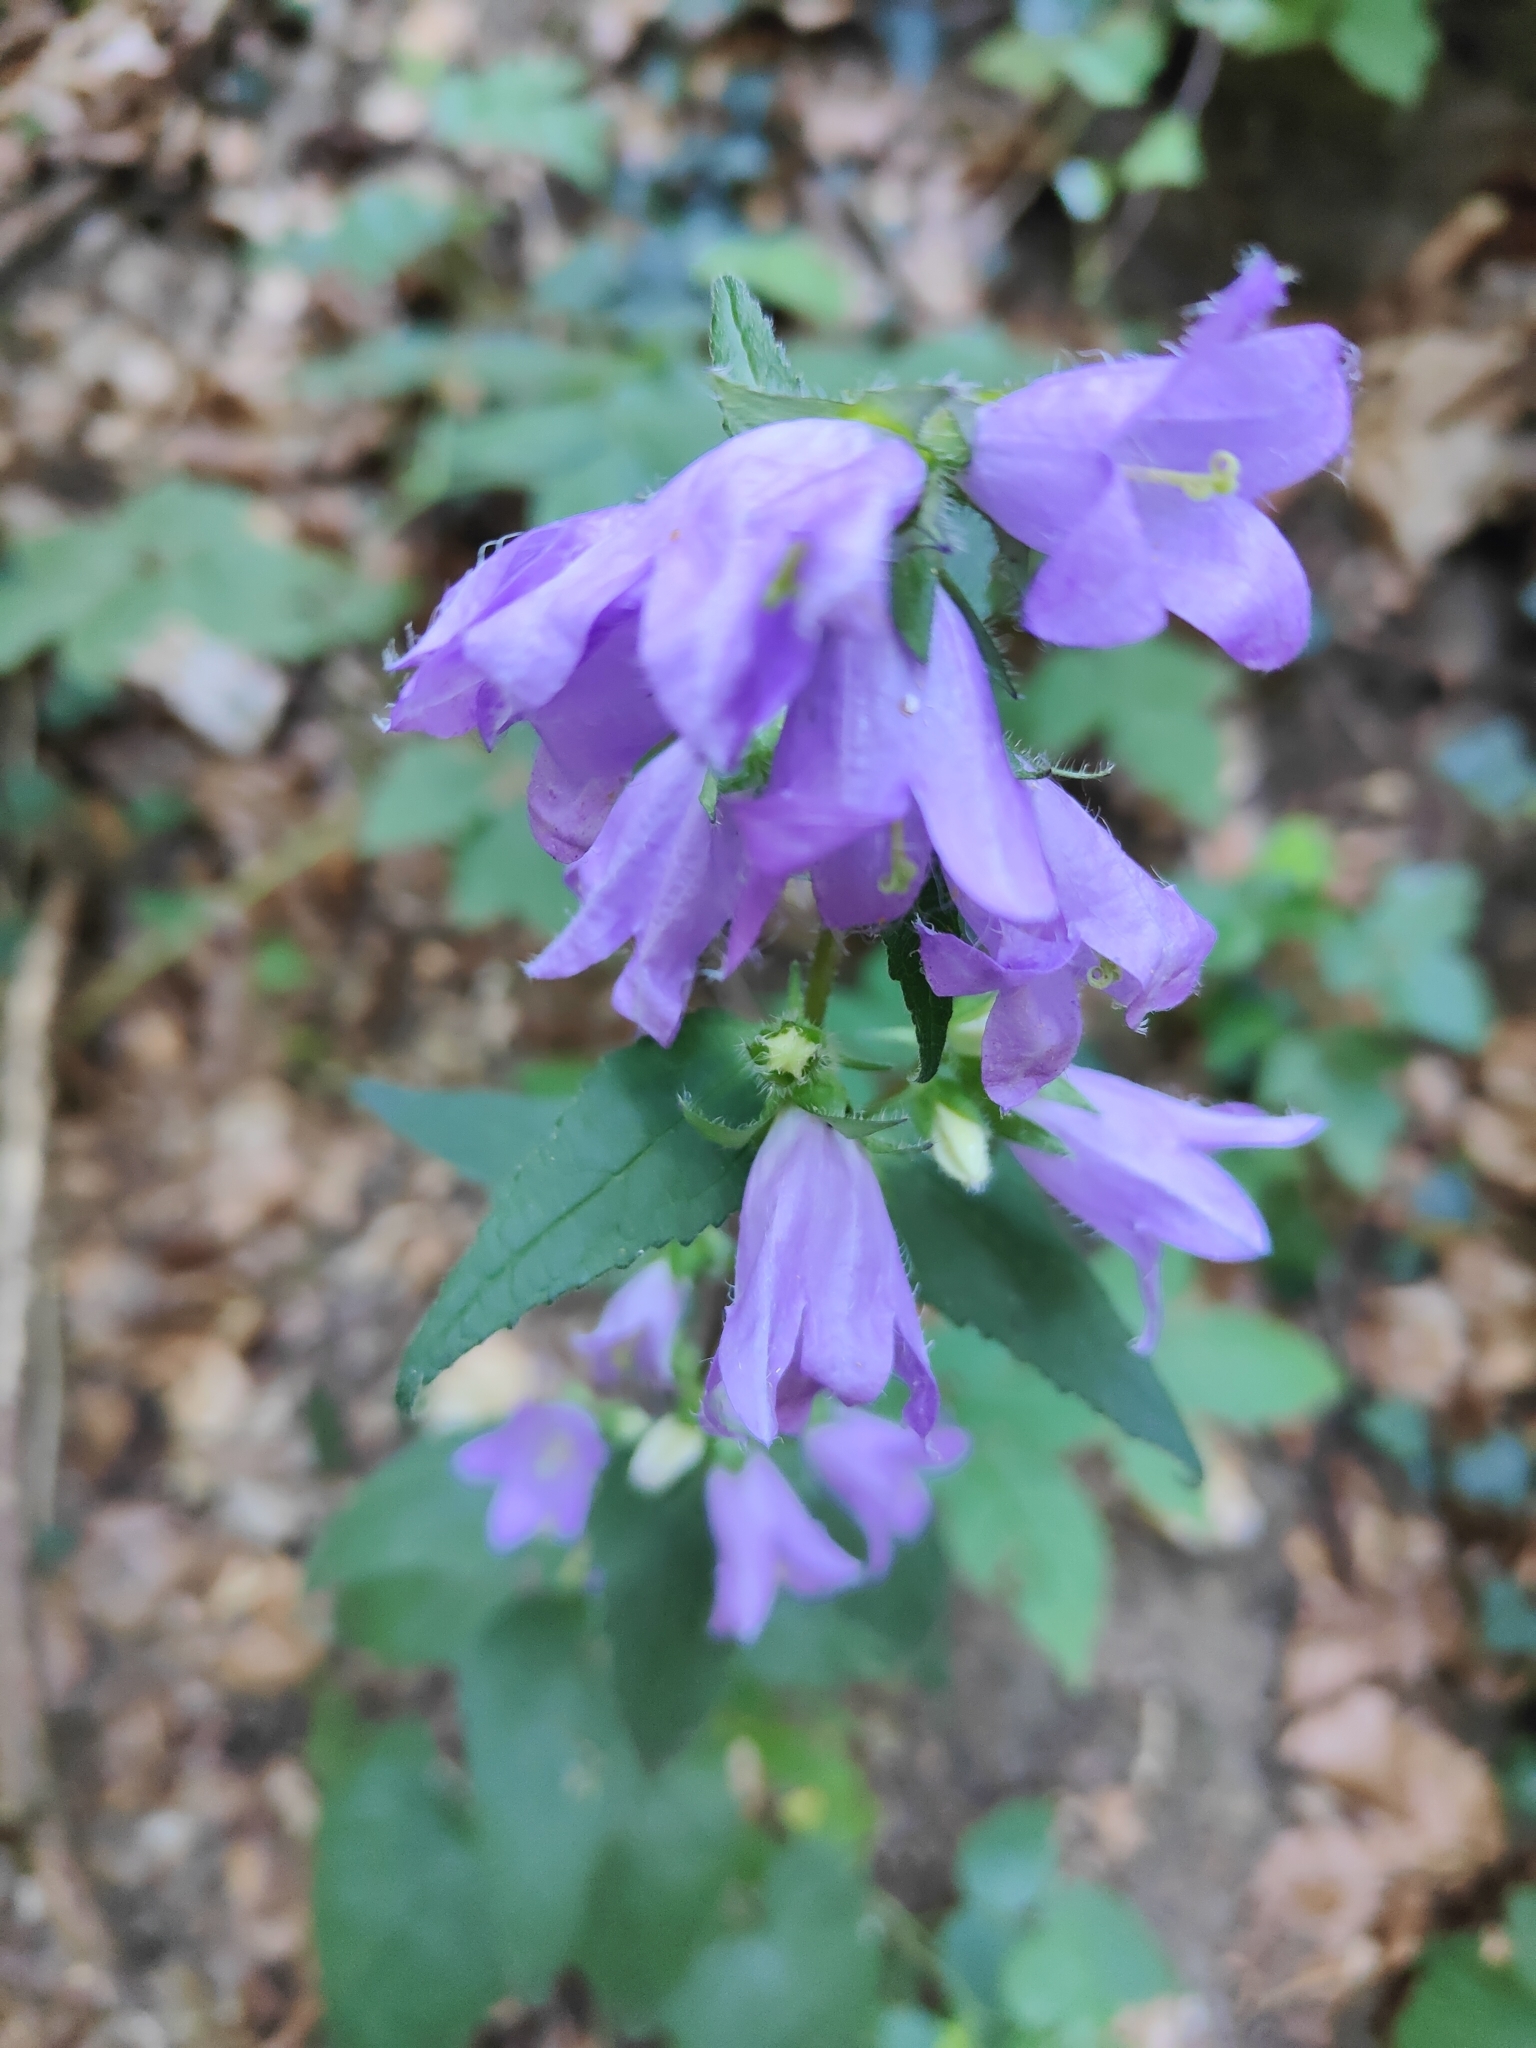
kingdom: Plantae
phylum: Tracheophyta
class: Magnoliopsida
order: Asterales
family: Campanulaceae
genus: Campanula
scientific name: Campanula trachelium
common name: Nettle-leaved bellflower
